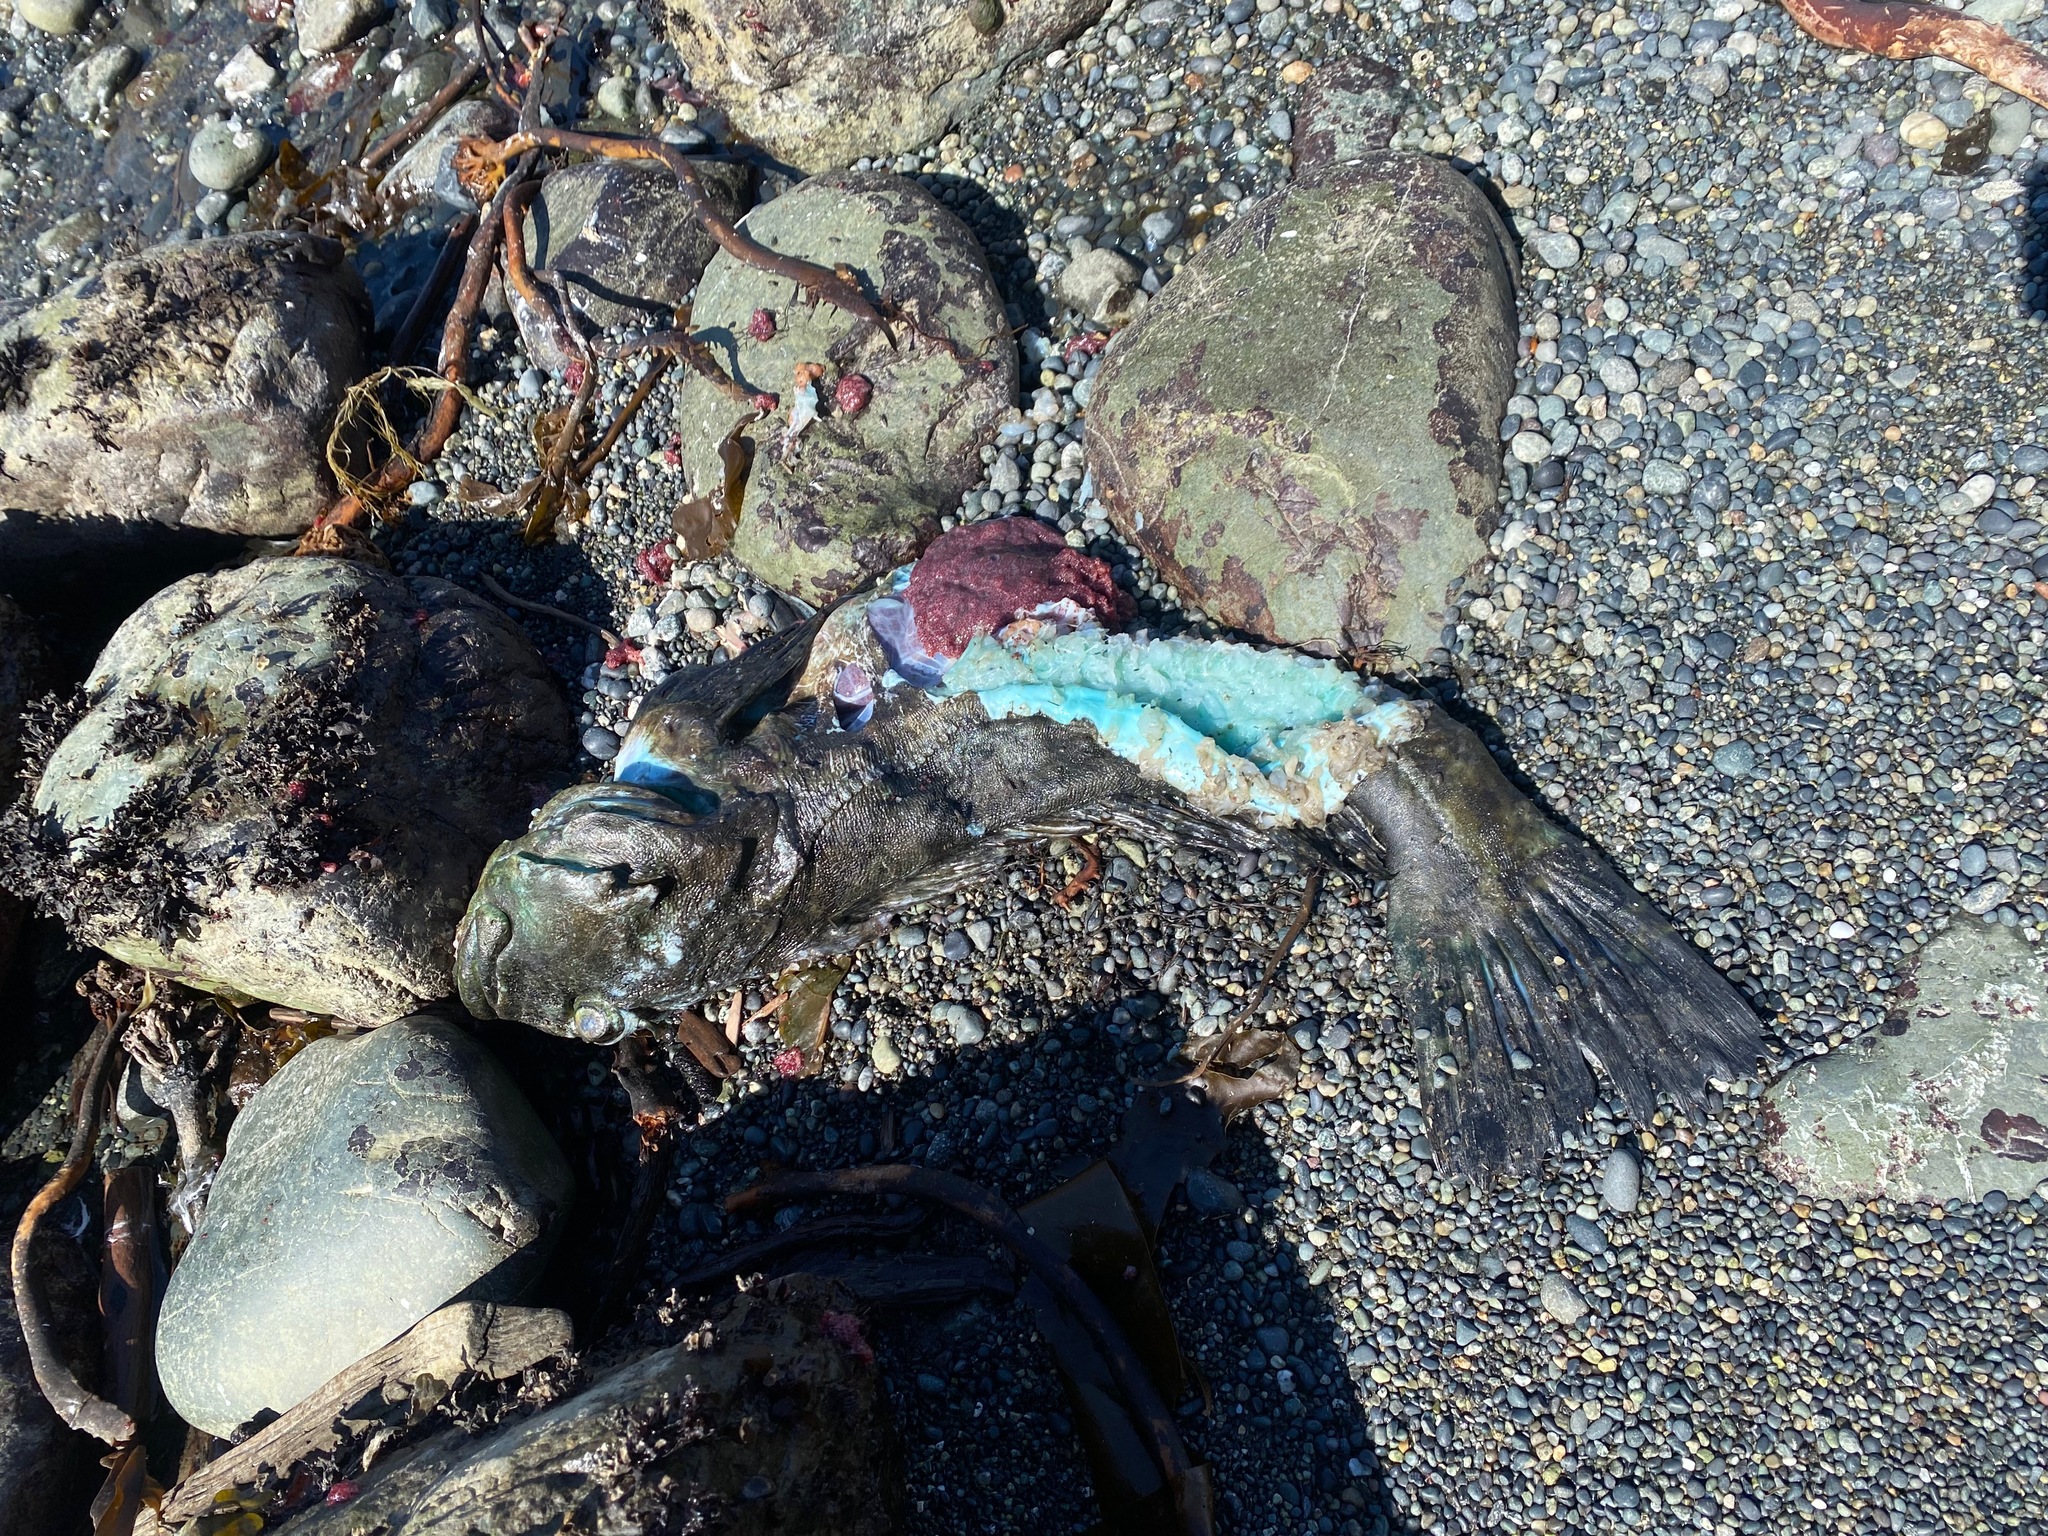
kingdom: Animalia
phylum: Chordata
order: Scorpaeniformes
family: Cottidae
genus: Scorpaenichthys
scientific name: Scorpaenichthys marmoratus
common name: Cabezon
